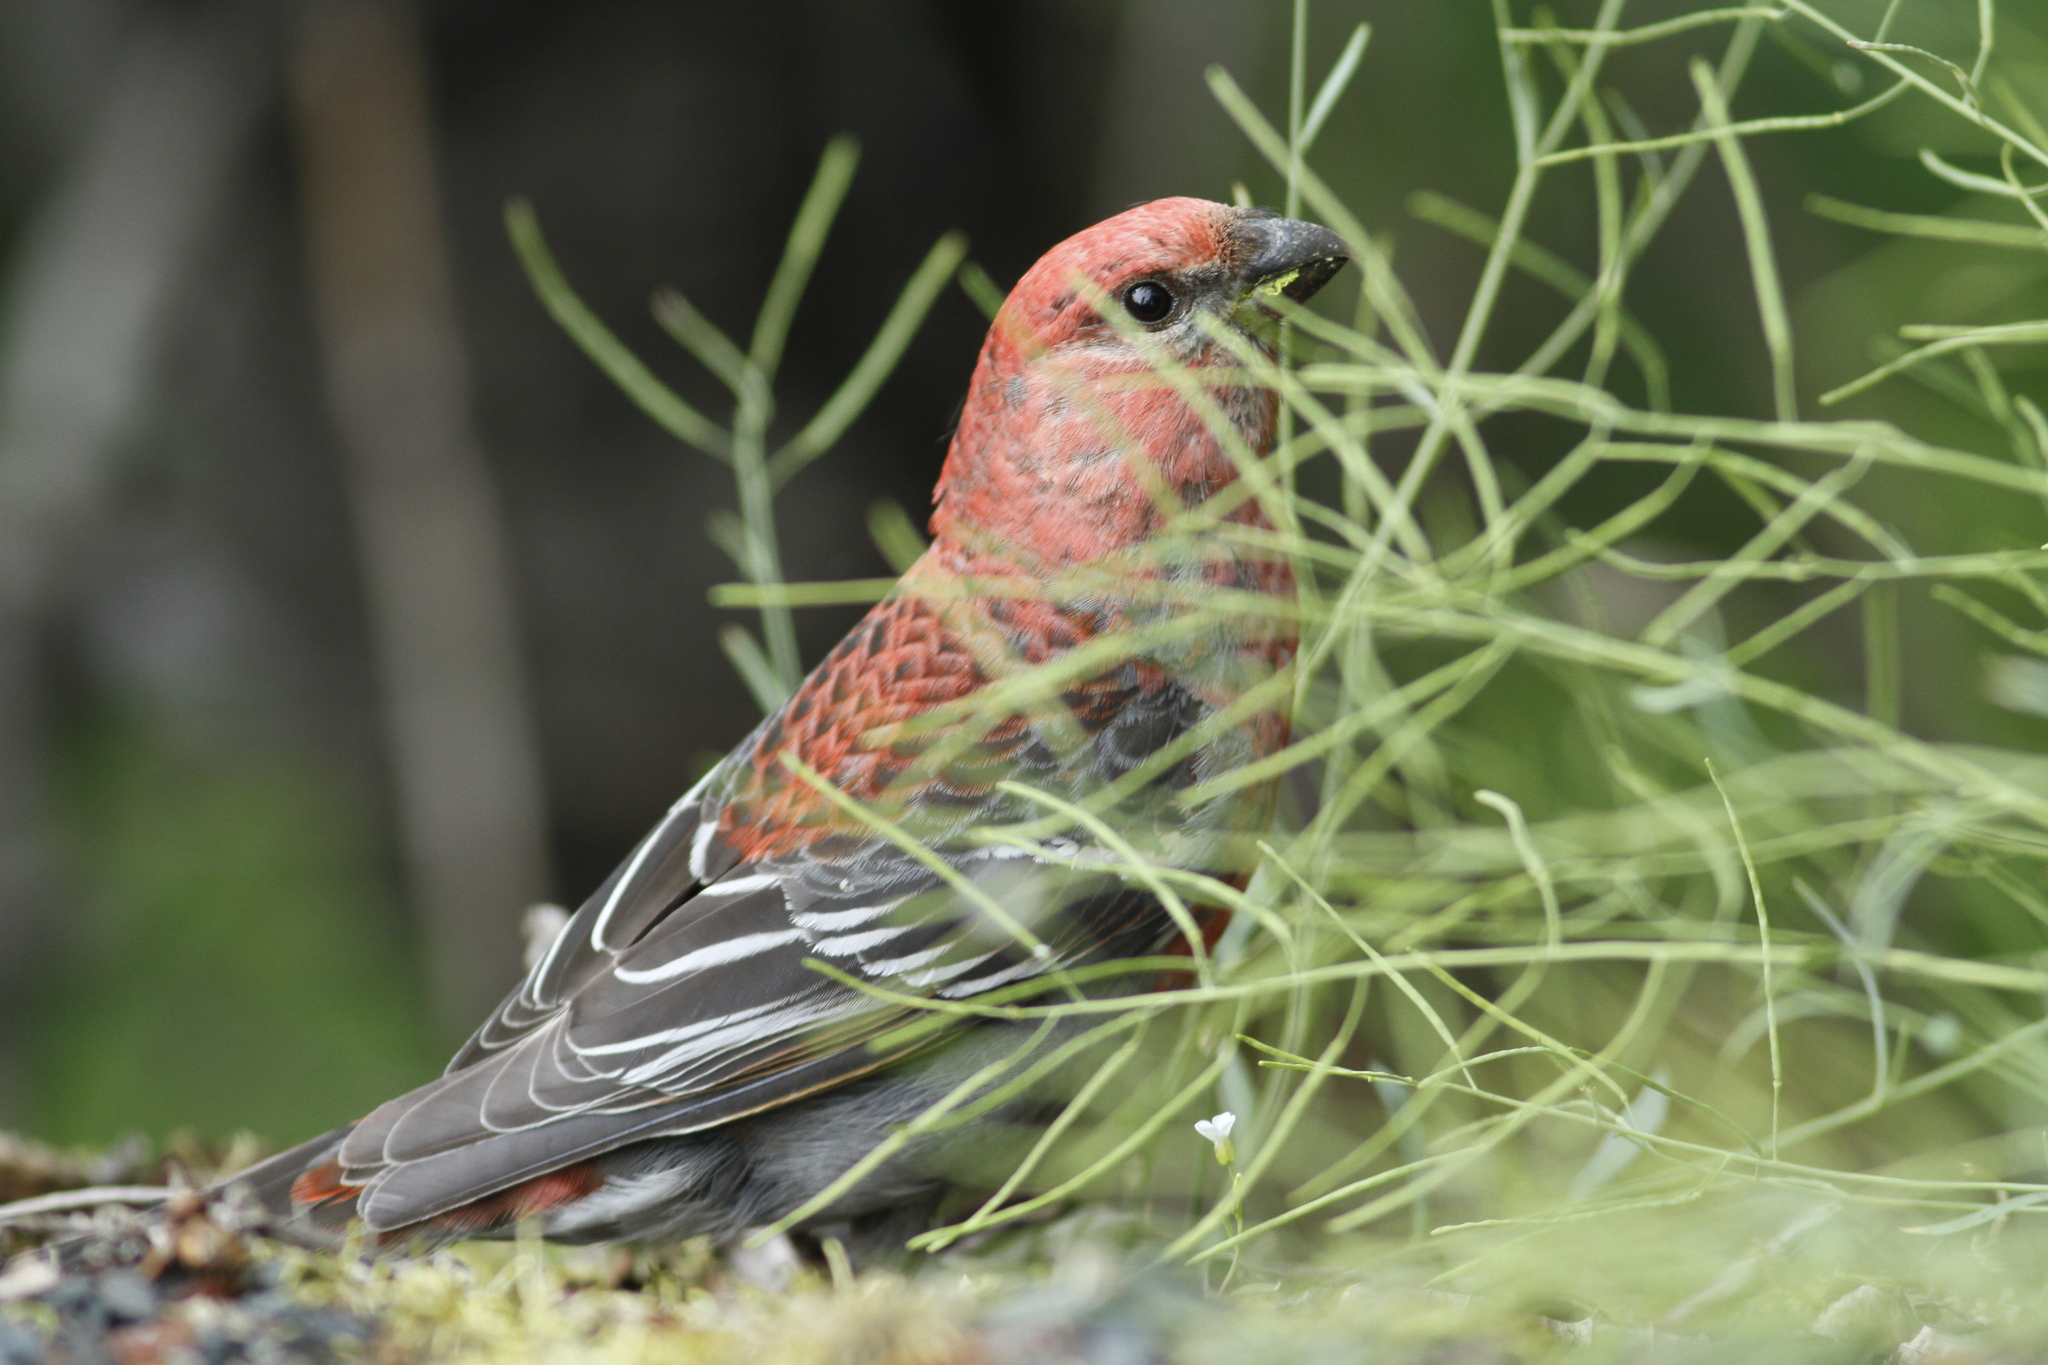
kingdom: Animalia
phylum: Chordata
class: Aves
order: Passeriformes
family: Fringillidae
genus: Pinicola
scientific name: Pinicola enucleator
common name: Pine grosbeak
